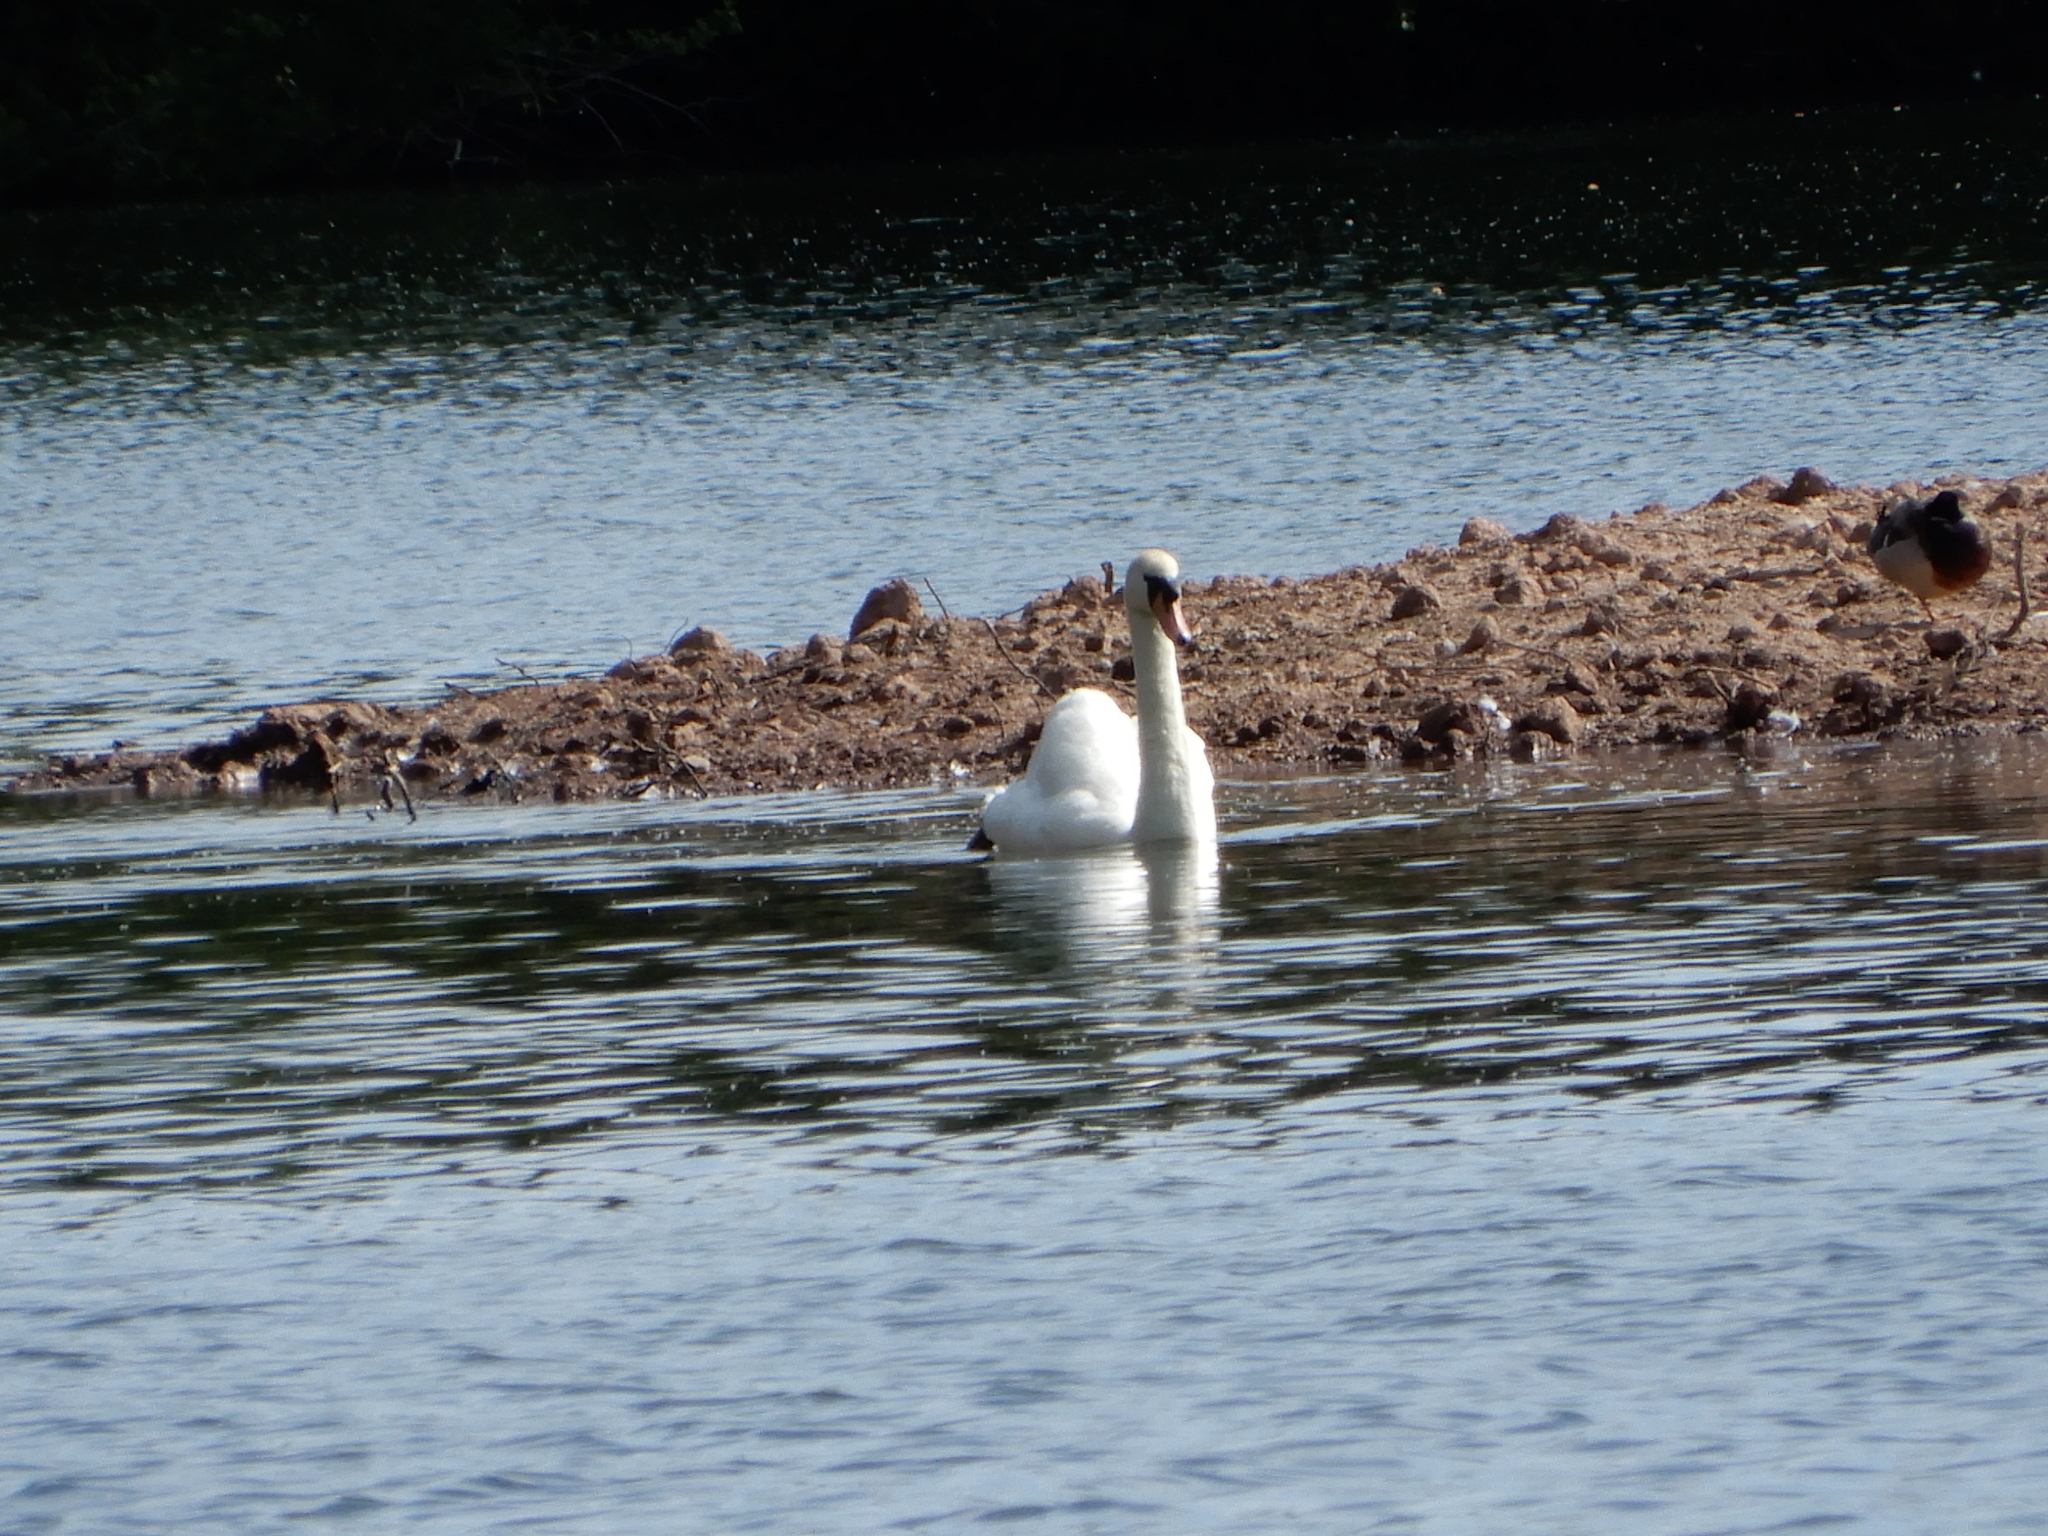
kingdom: Animalia
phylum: Chordata
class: Aves
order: Anseriformes
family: Anatidae
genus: Cygnus
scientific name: Cygnus olor
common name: Mute swan
